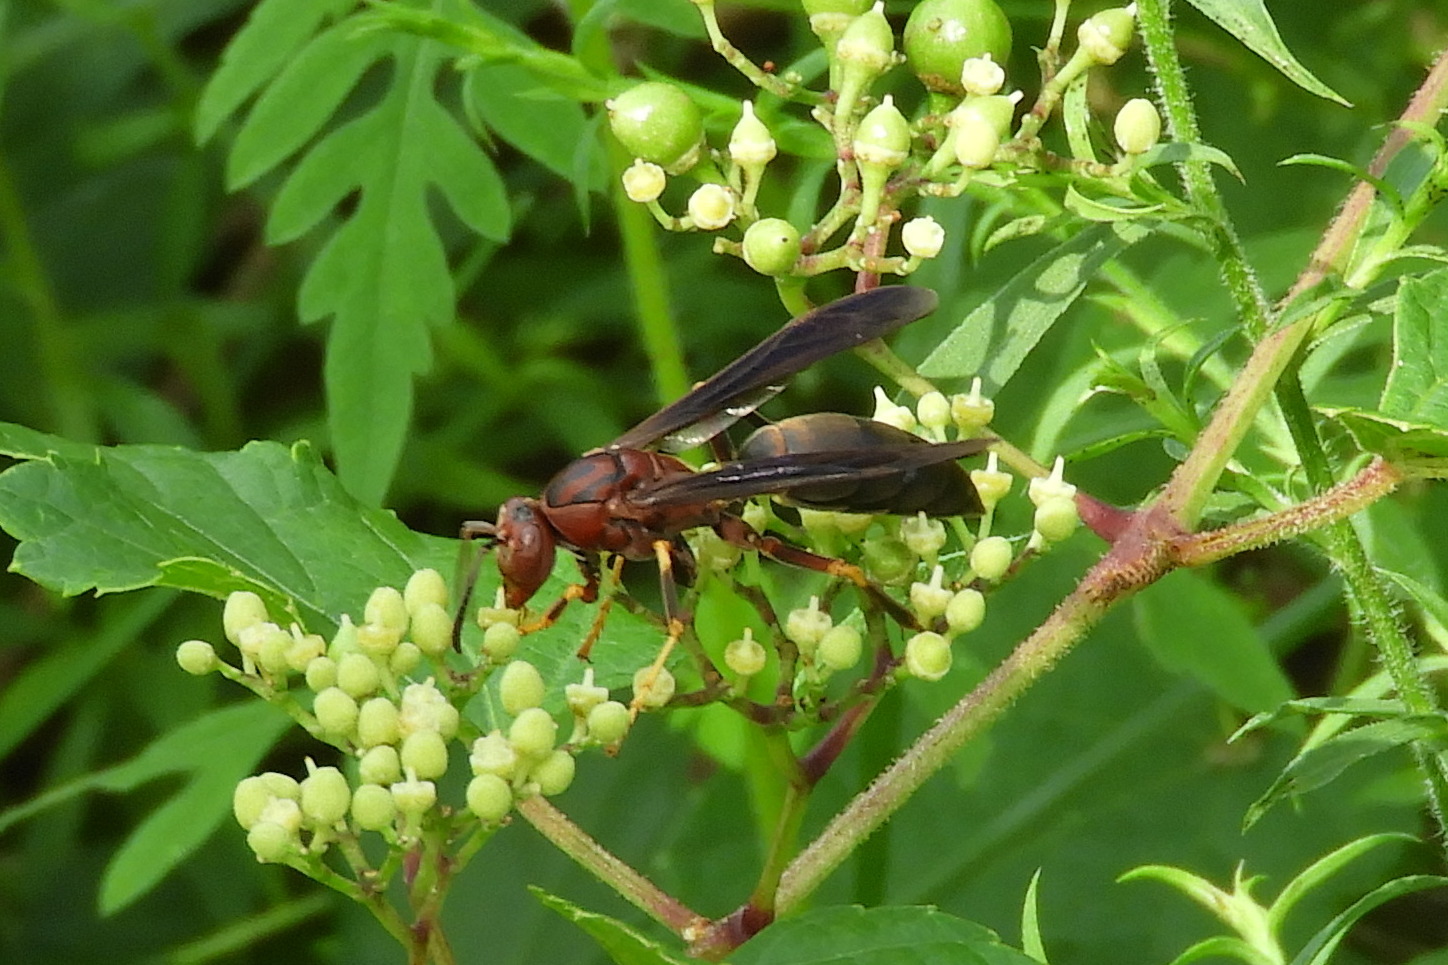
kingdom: Animalia
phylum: Arthropoda
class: Insecta
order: Hymenoptera
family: Eumenidae
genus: Polistes
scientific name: Polistes metricus
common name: Metric paper wasp
